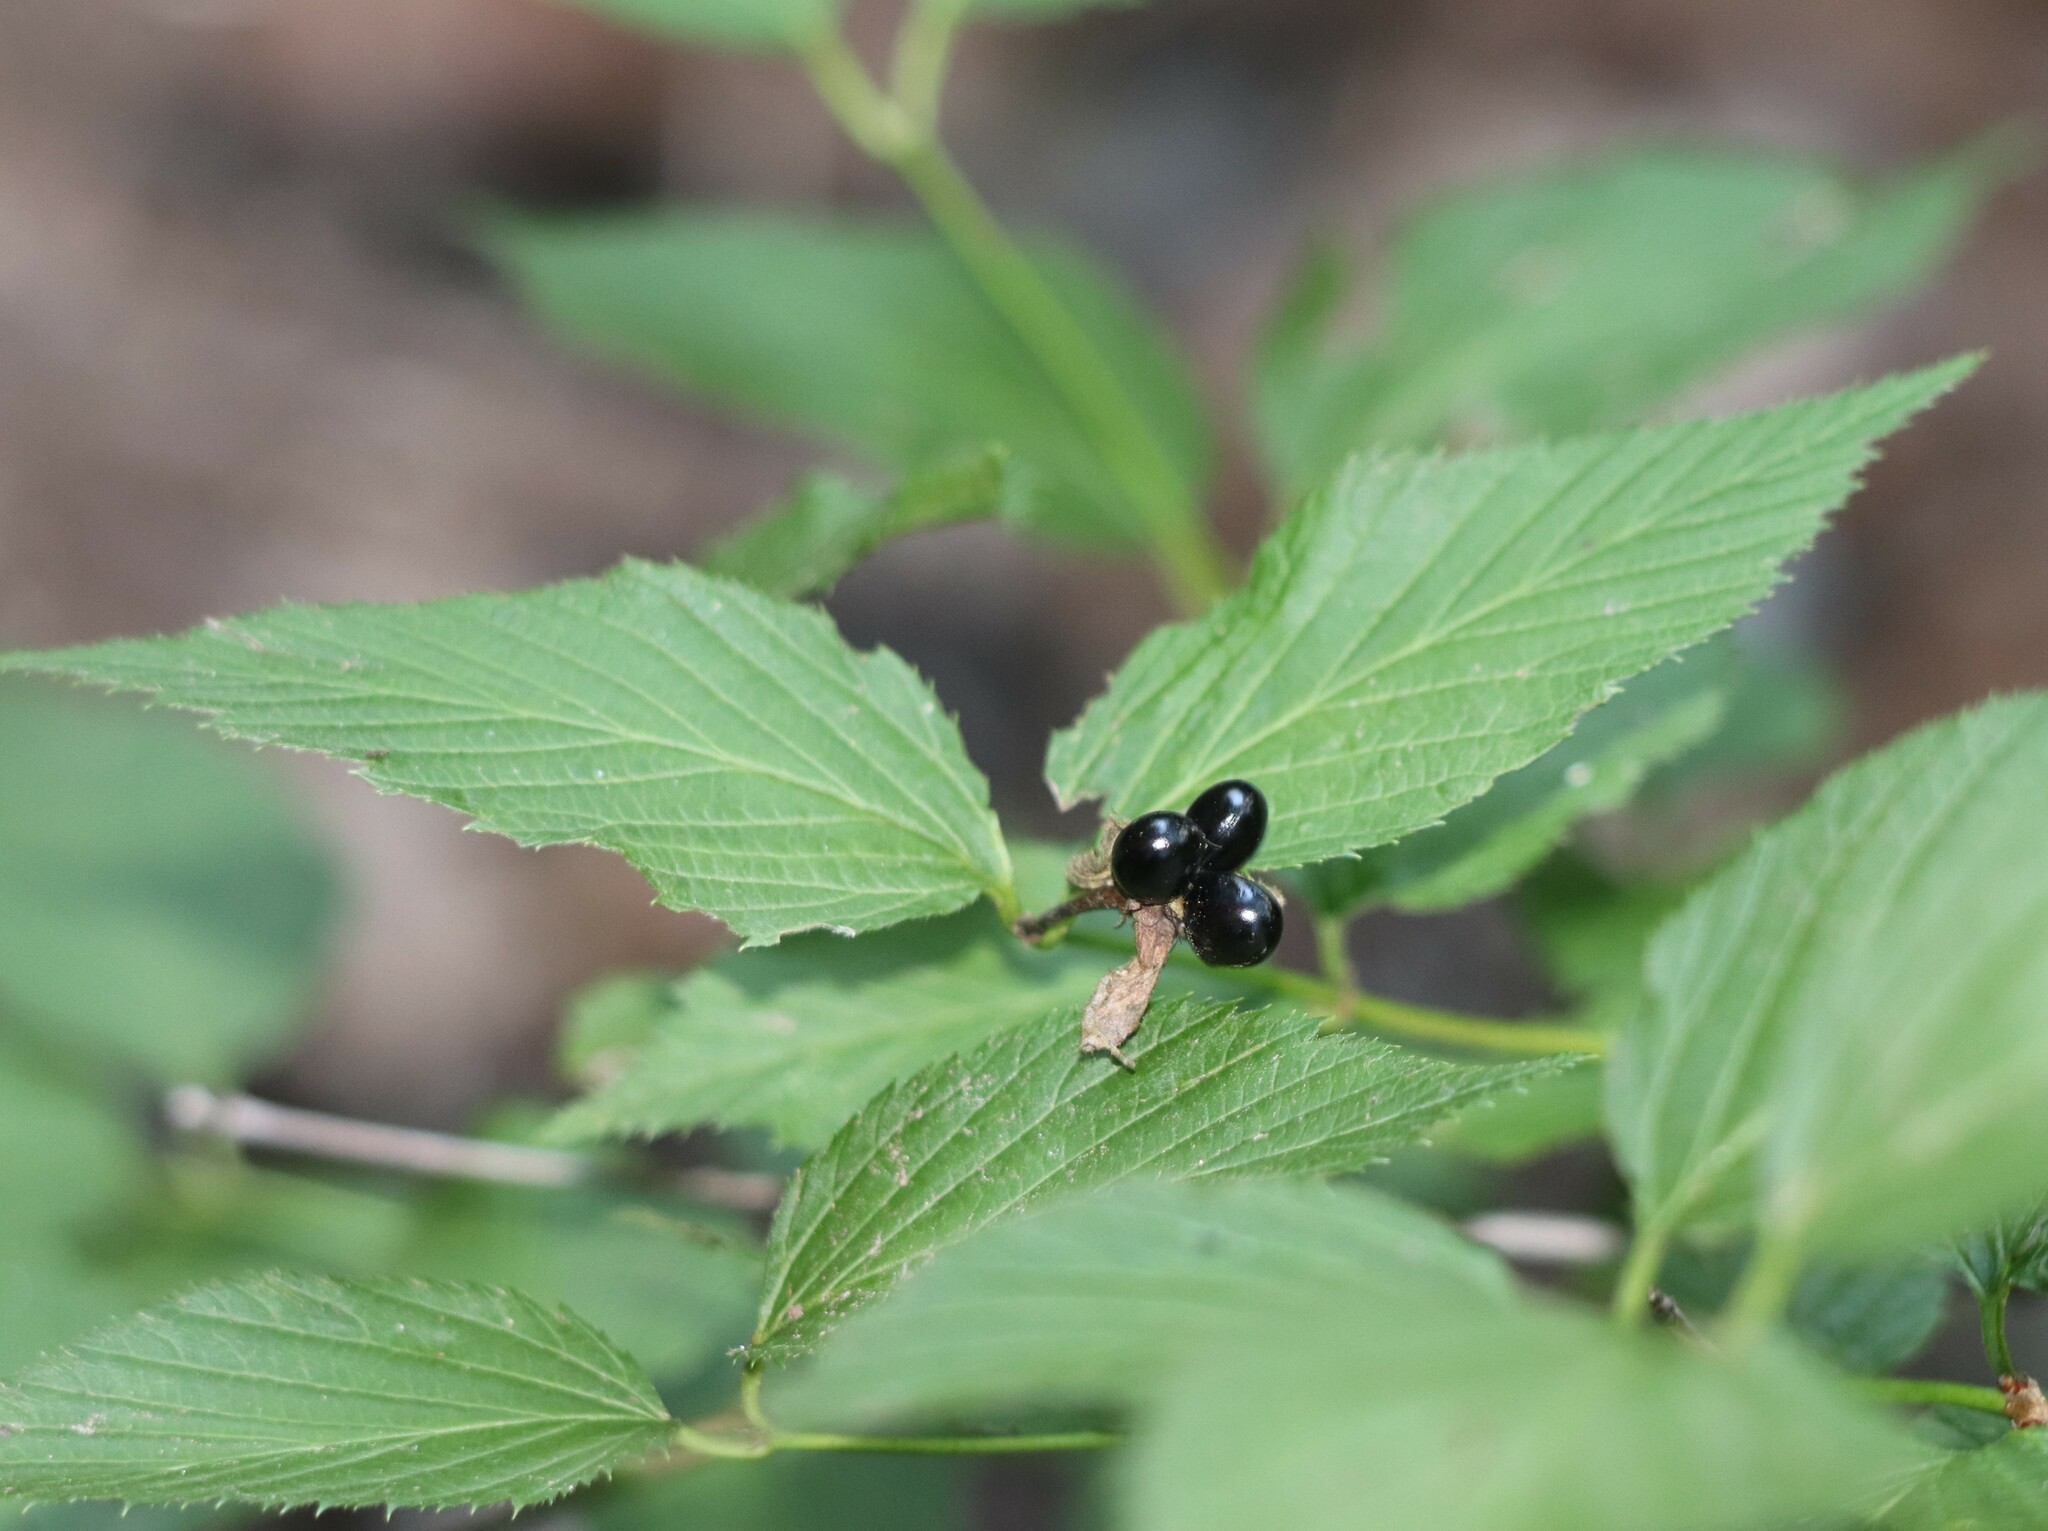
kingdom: Plantae
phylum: Tracheophyta
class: Magnoliopsida
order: Rosales
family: Rosaceae
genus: Rhodotypos
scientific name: Rhodotypos scandens
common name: Jetbead
